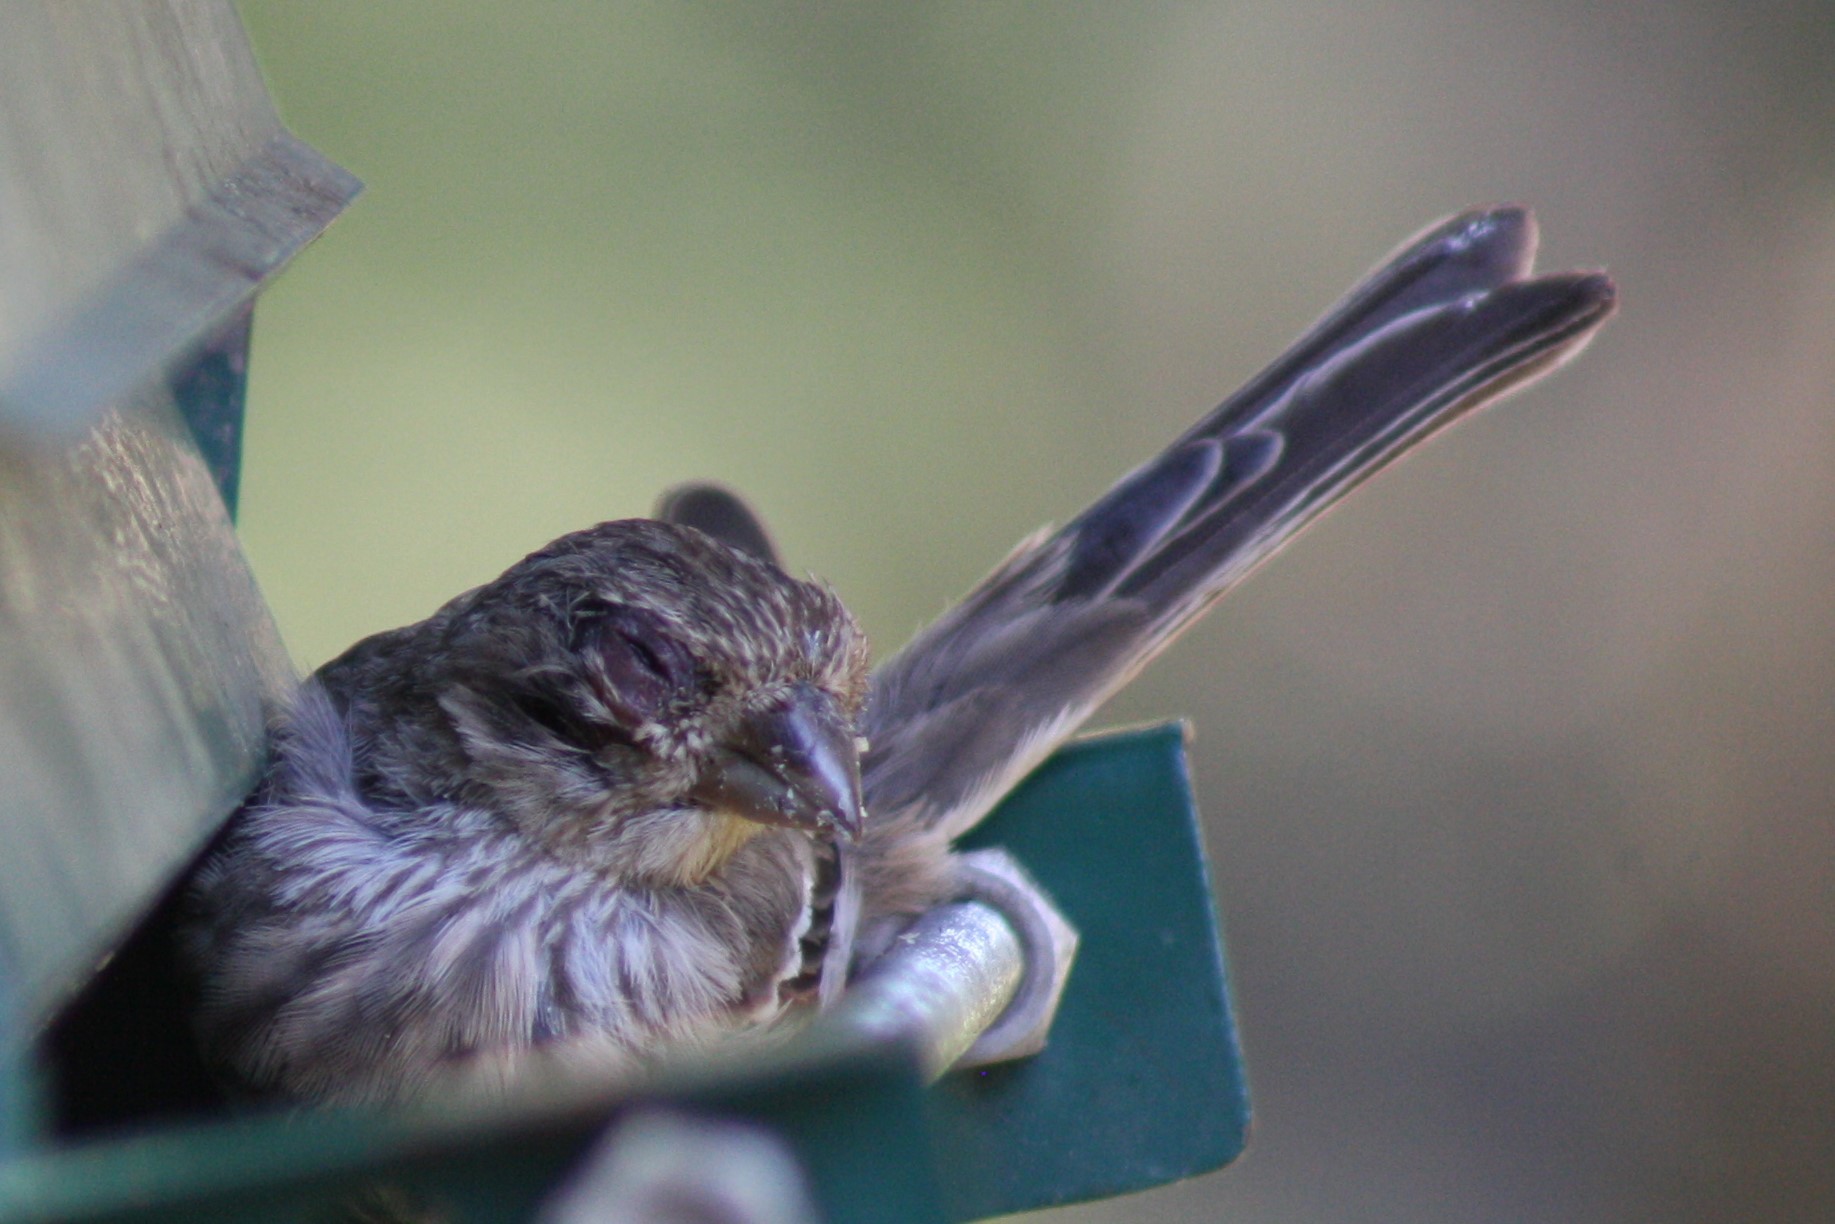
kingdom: Animalia
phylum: Chordata
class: Aves
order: Passeriformes
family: Fringillidae
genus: Haemorhous
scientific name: Haemorhous mexicanus
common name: House finch
